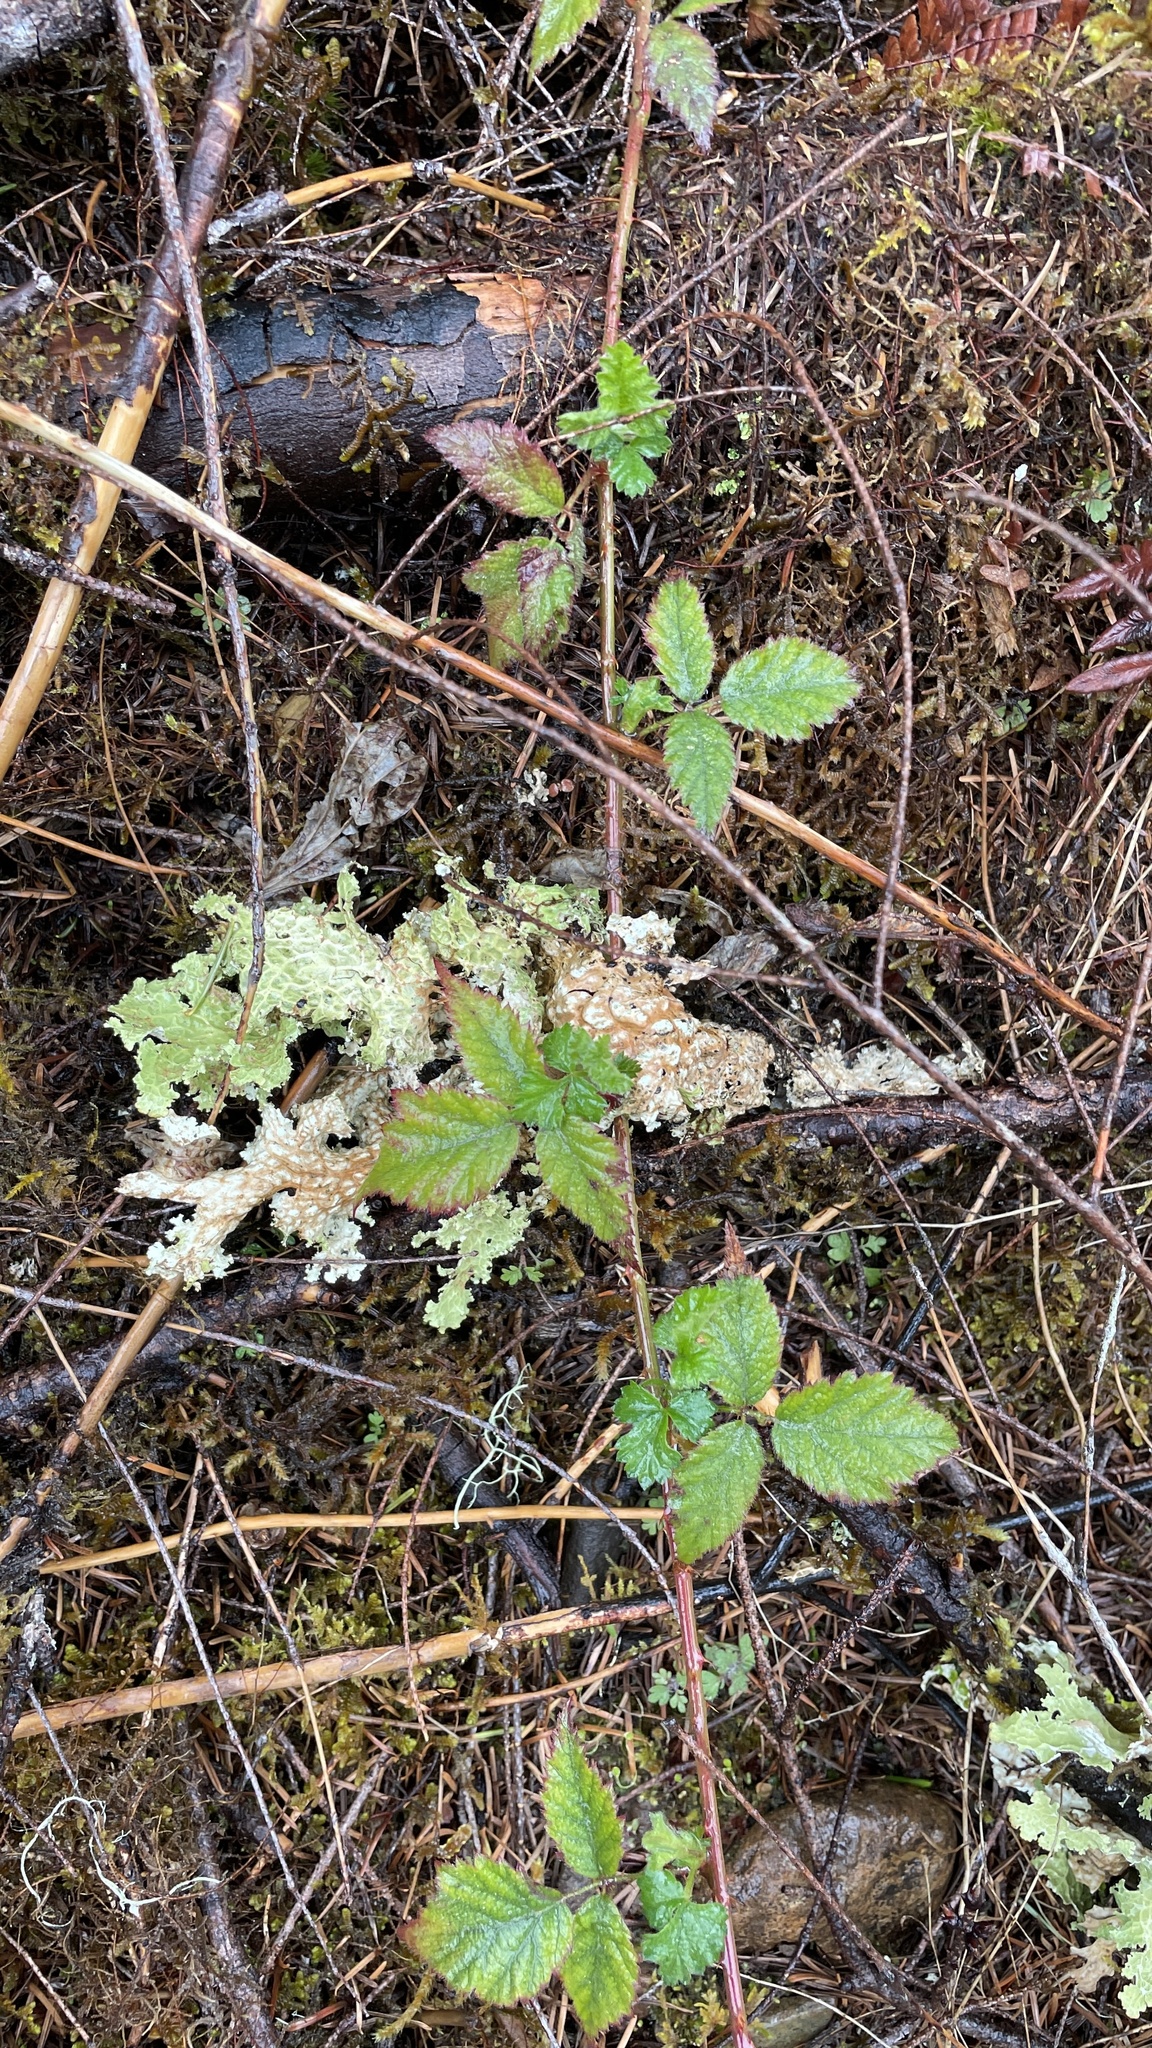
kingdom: Plantae
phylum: Tracheophyta
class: Magnoliopsida
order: Rosales
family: Rosaceae
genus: Rubus
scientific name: Rubus ursinus
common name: Pacific blackberry
